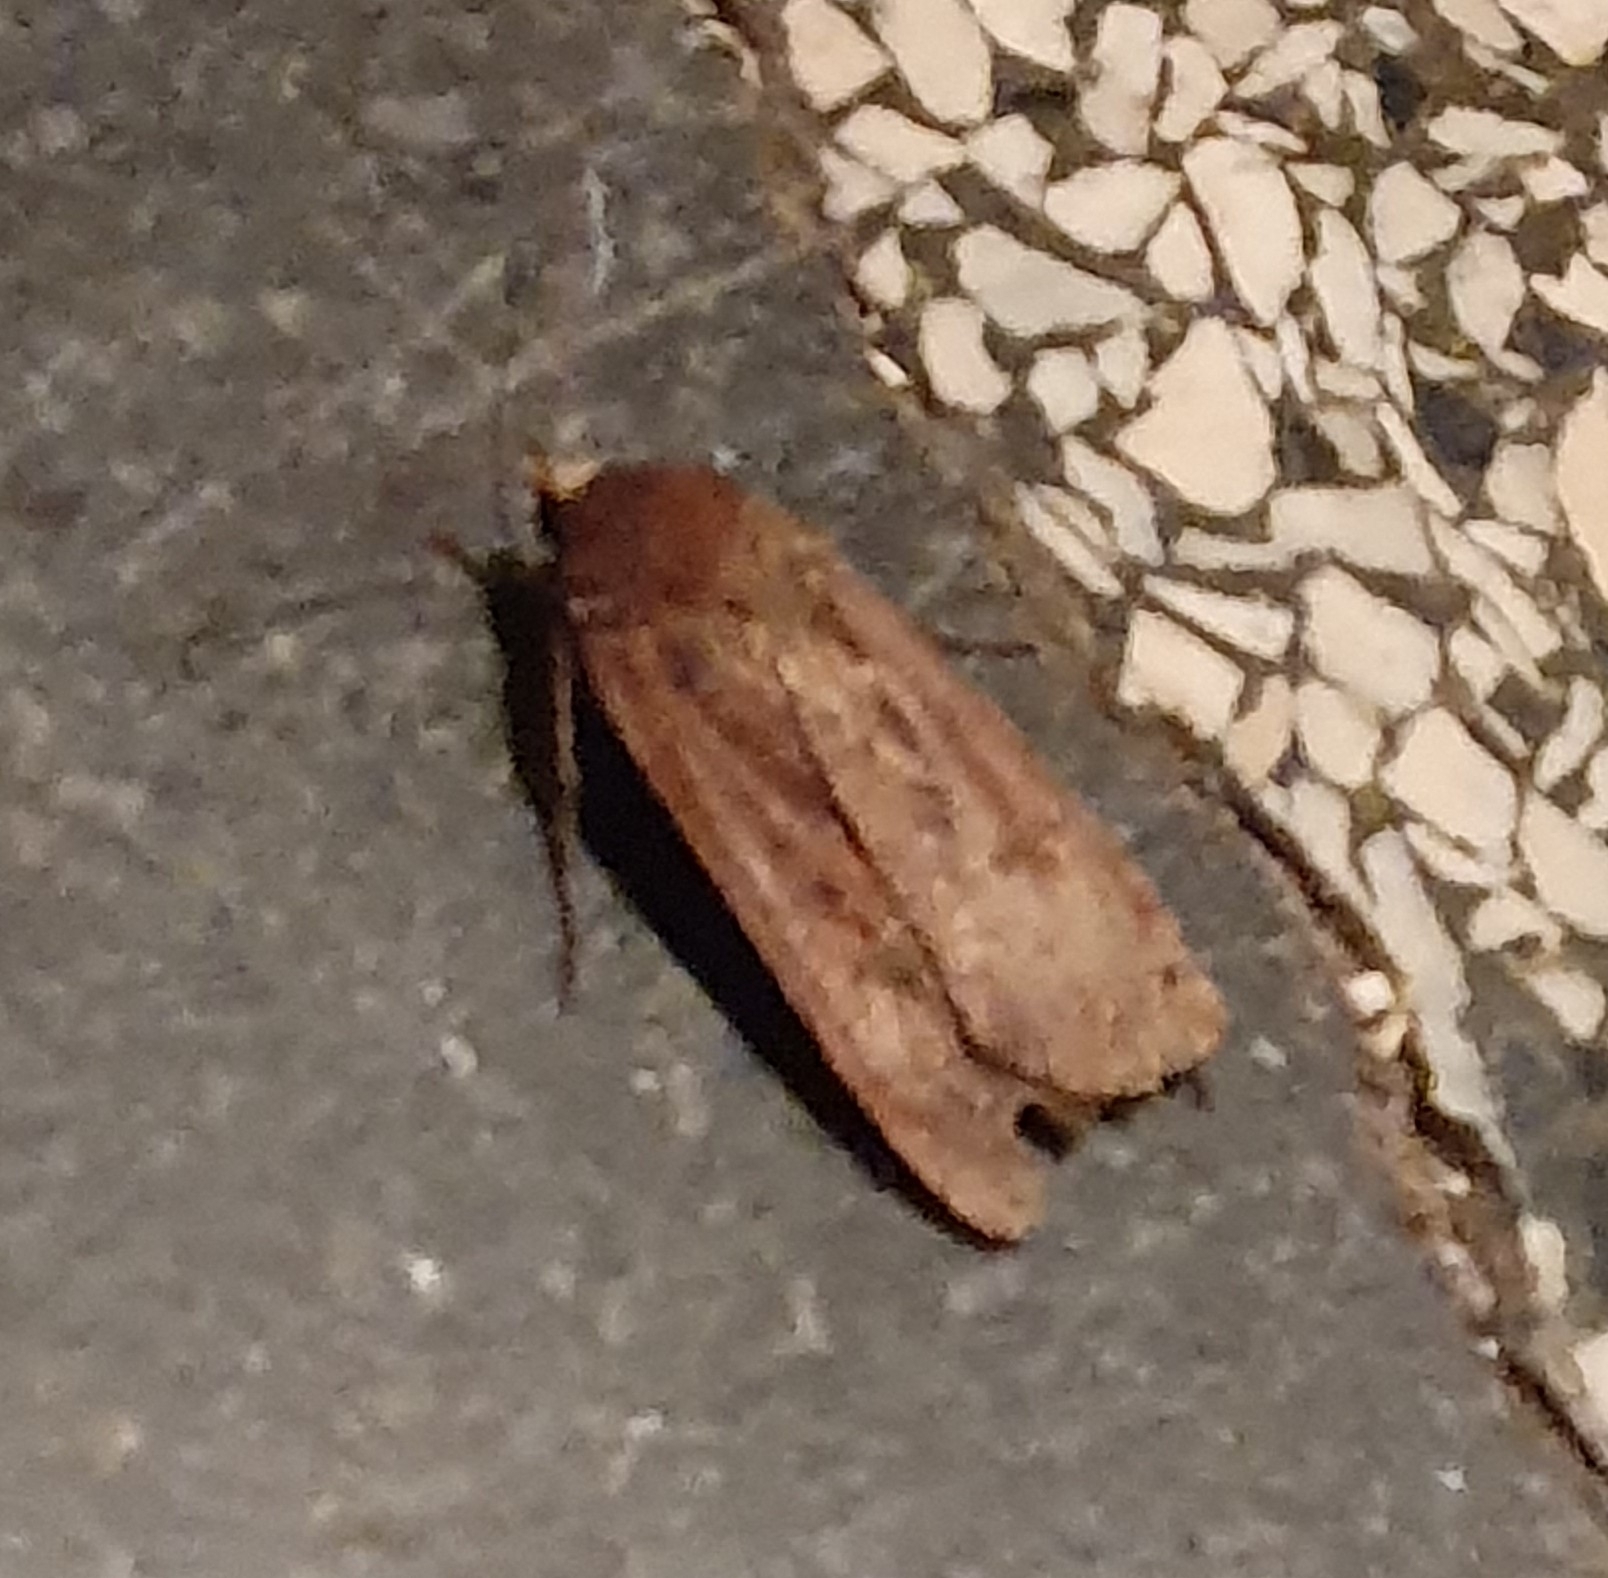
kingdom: Animalia
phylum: Arthropoda
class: Insecta
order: Lepidoptera
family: Noctuidae
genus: Noctua
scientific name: Noctua pronuba
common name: Large yellow underwing
